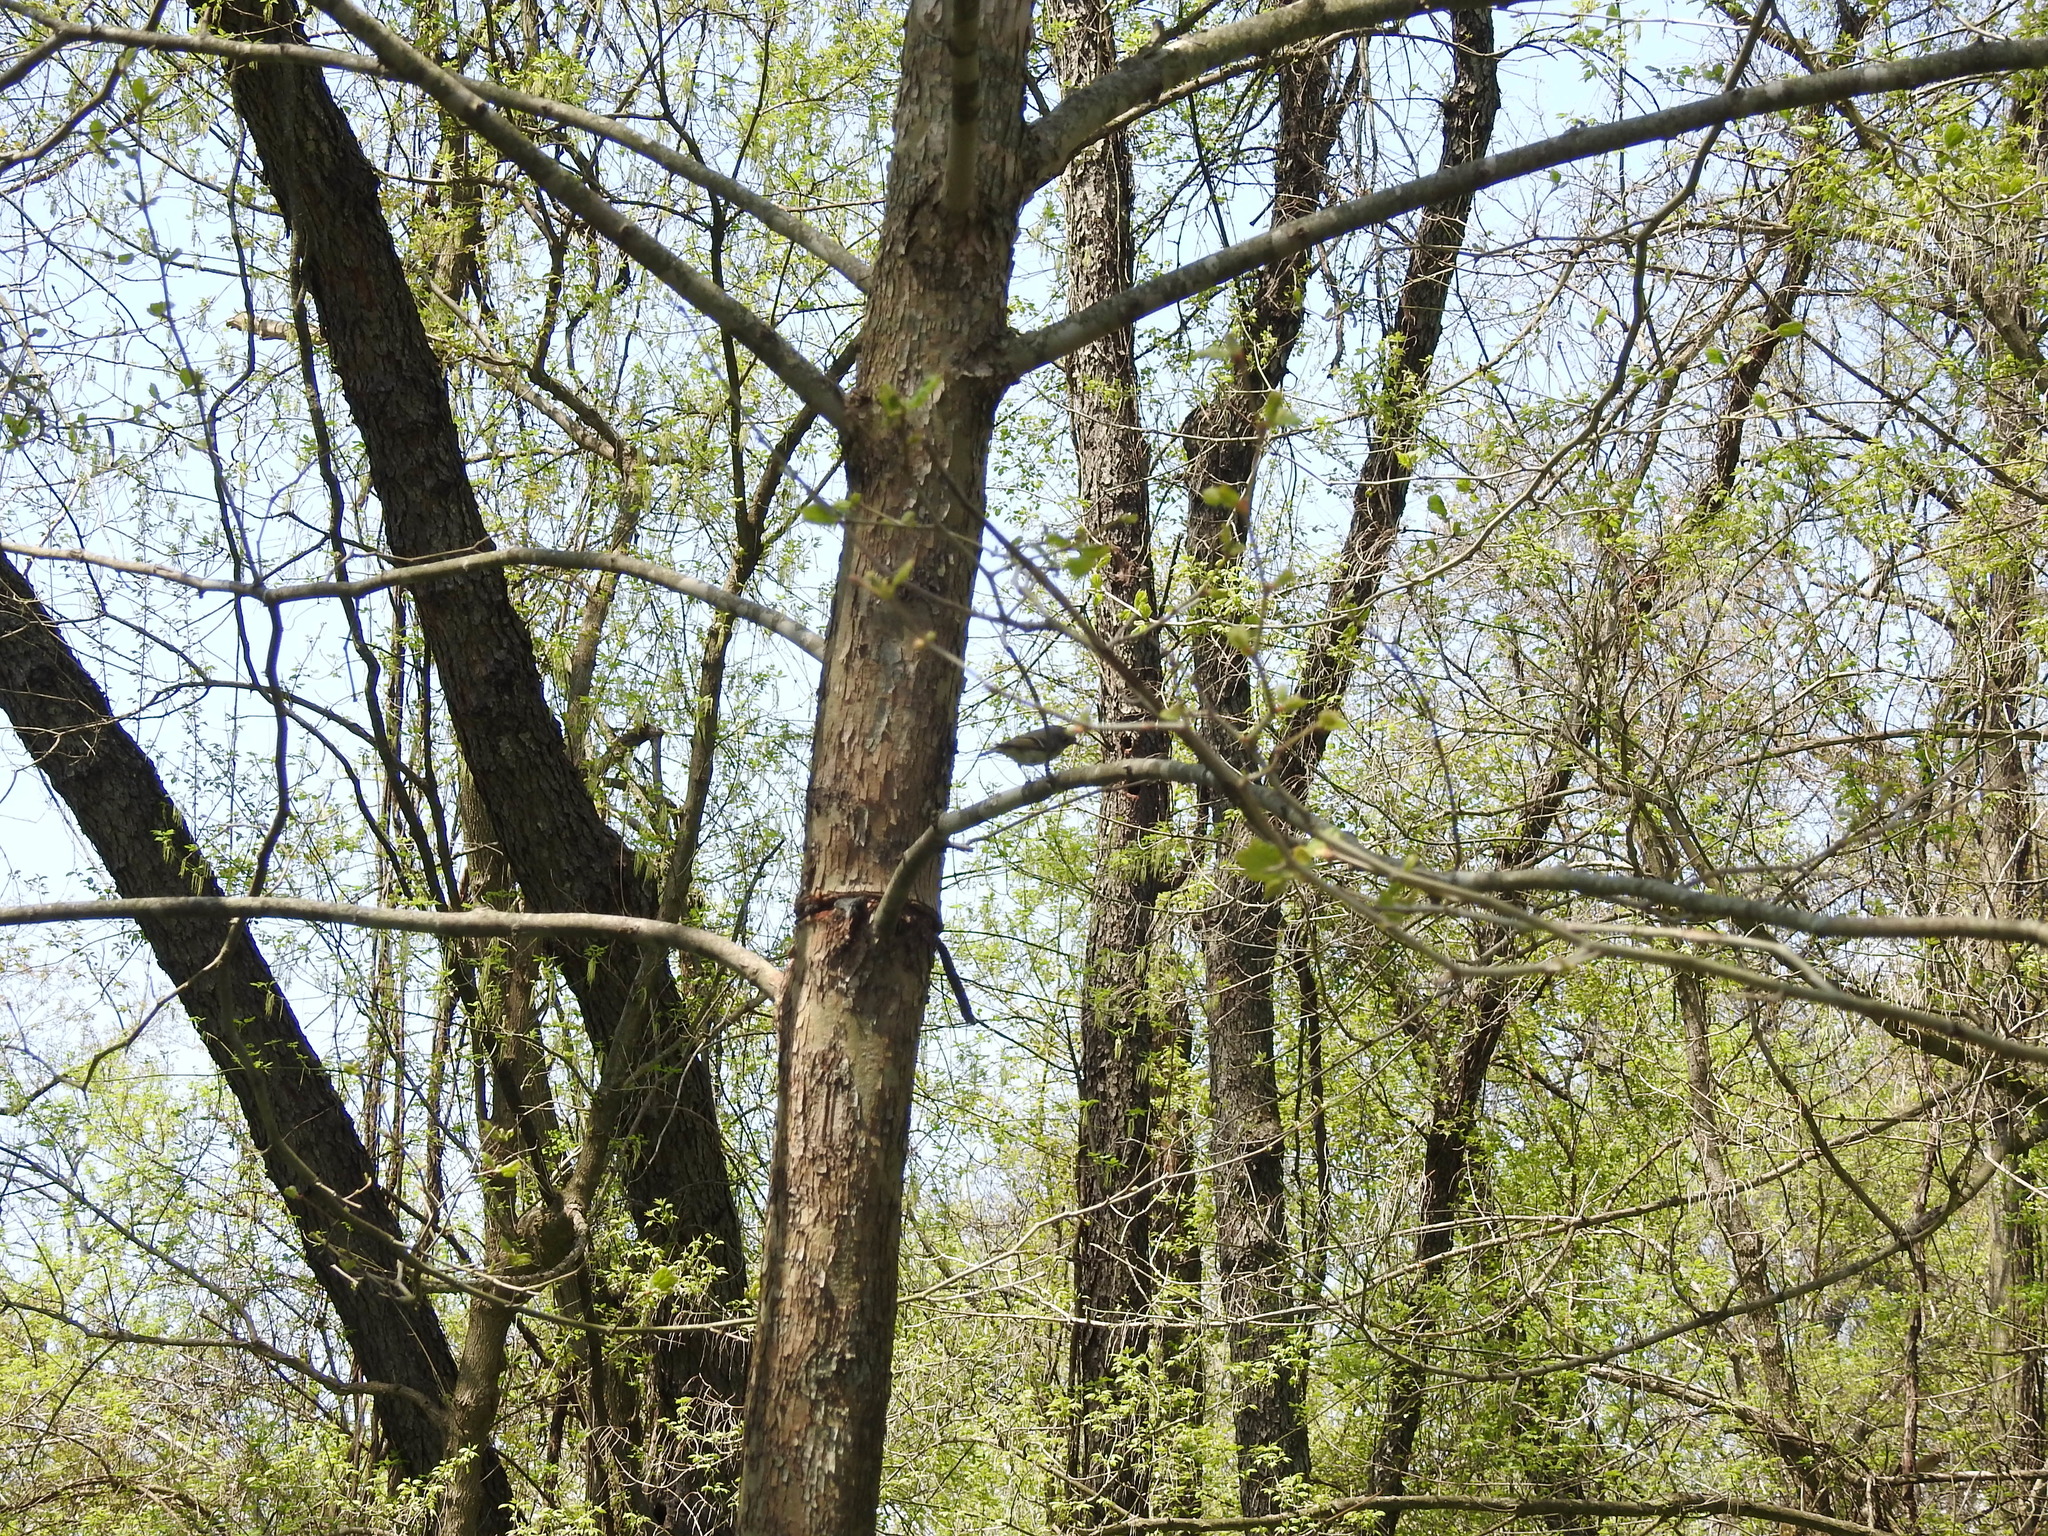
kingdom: Animalia
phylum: Chordata
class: Aves
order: Passeriformes
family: Regulidae
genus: Regulus
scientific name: Regulus calendula
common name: Ruby-crowned kinglet
